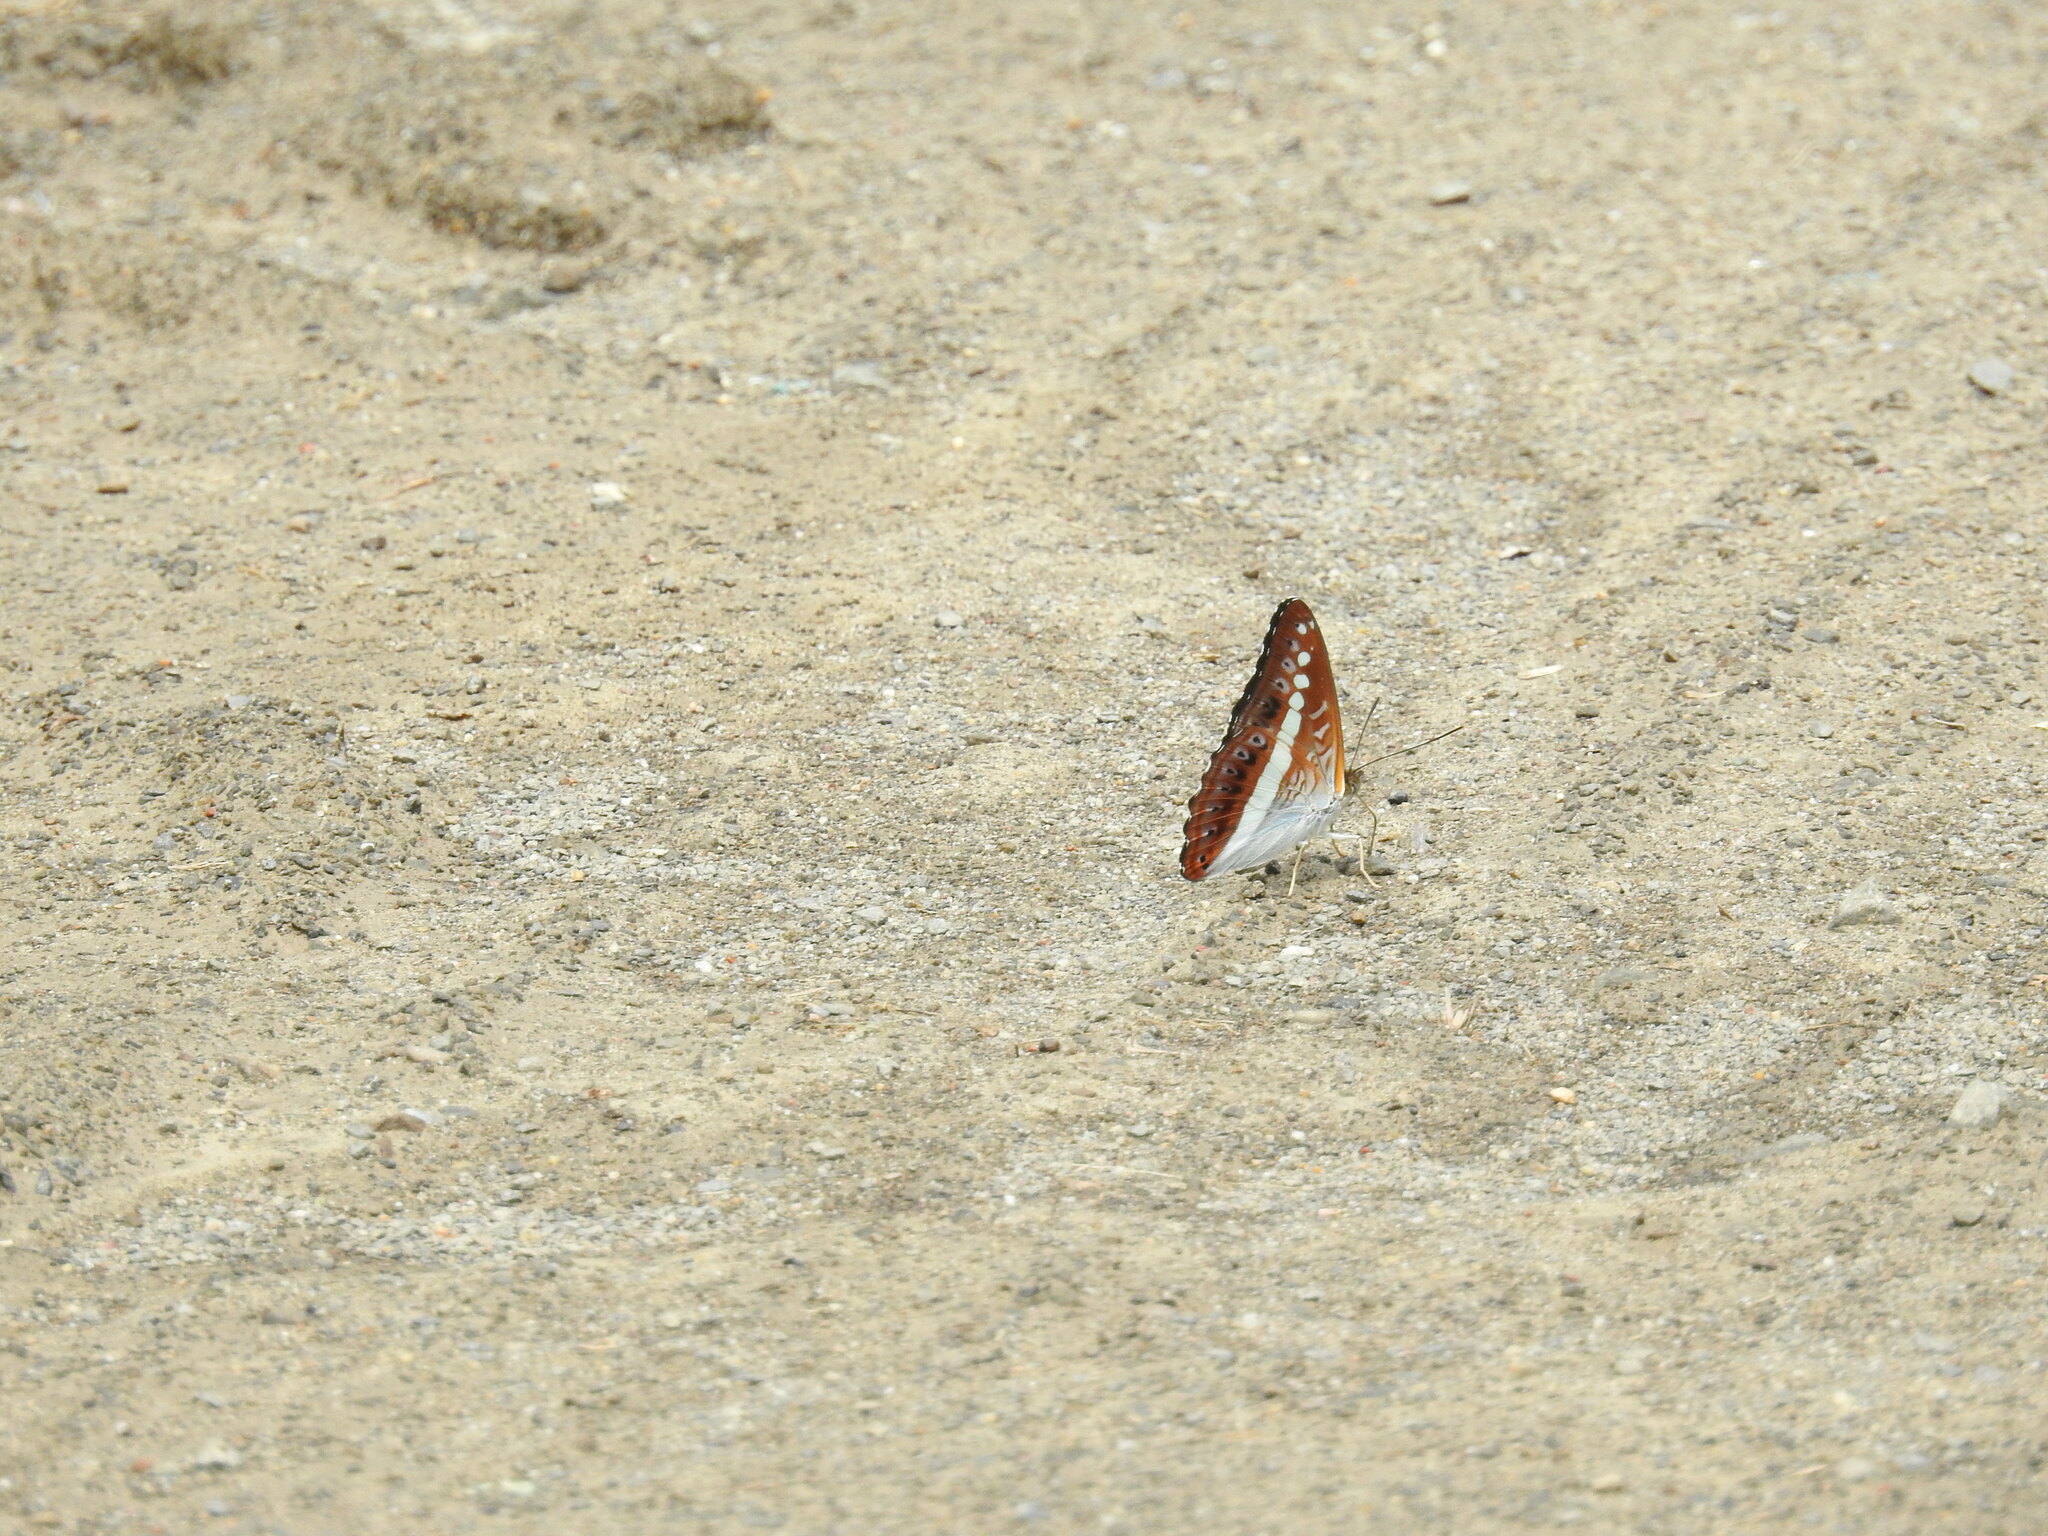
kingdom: Animalia
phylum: Arthropoda
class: Insecta
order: Lepidoptera
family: Nymphalidae
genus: Limenitis
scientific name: Limenitis Sumalia daraxa
